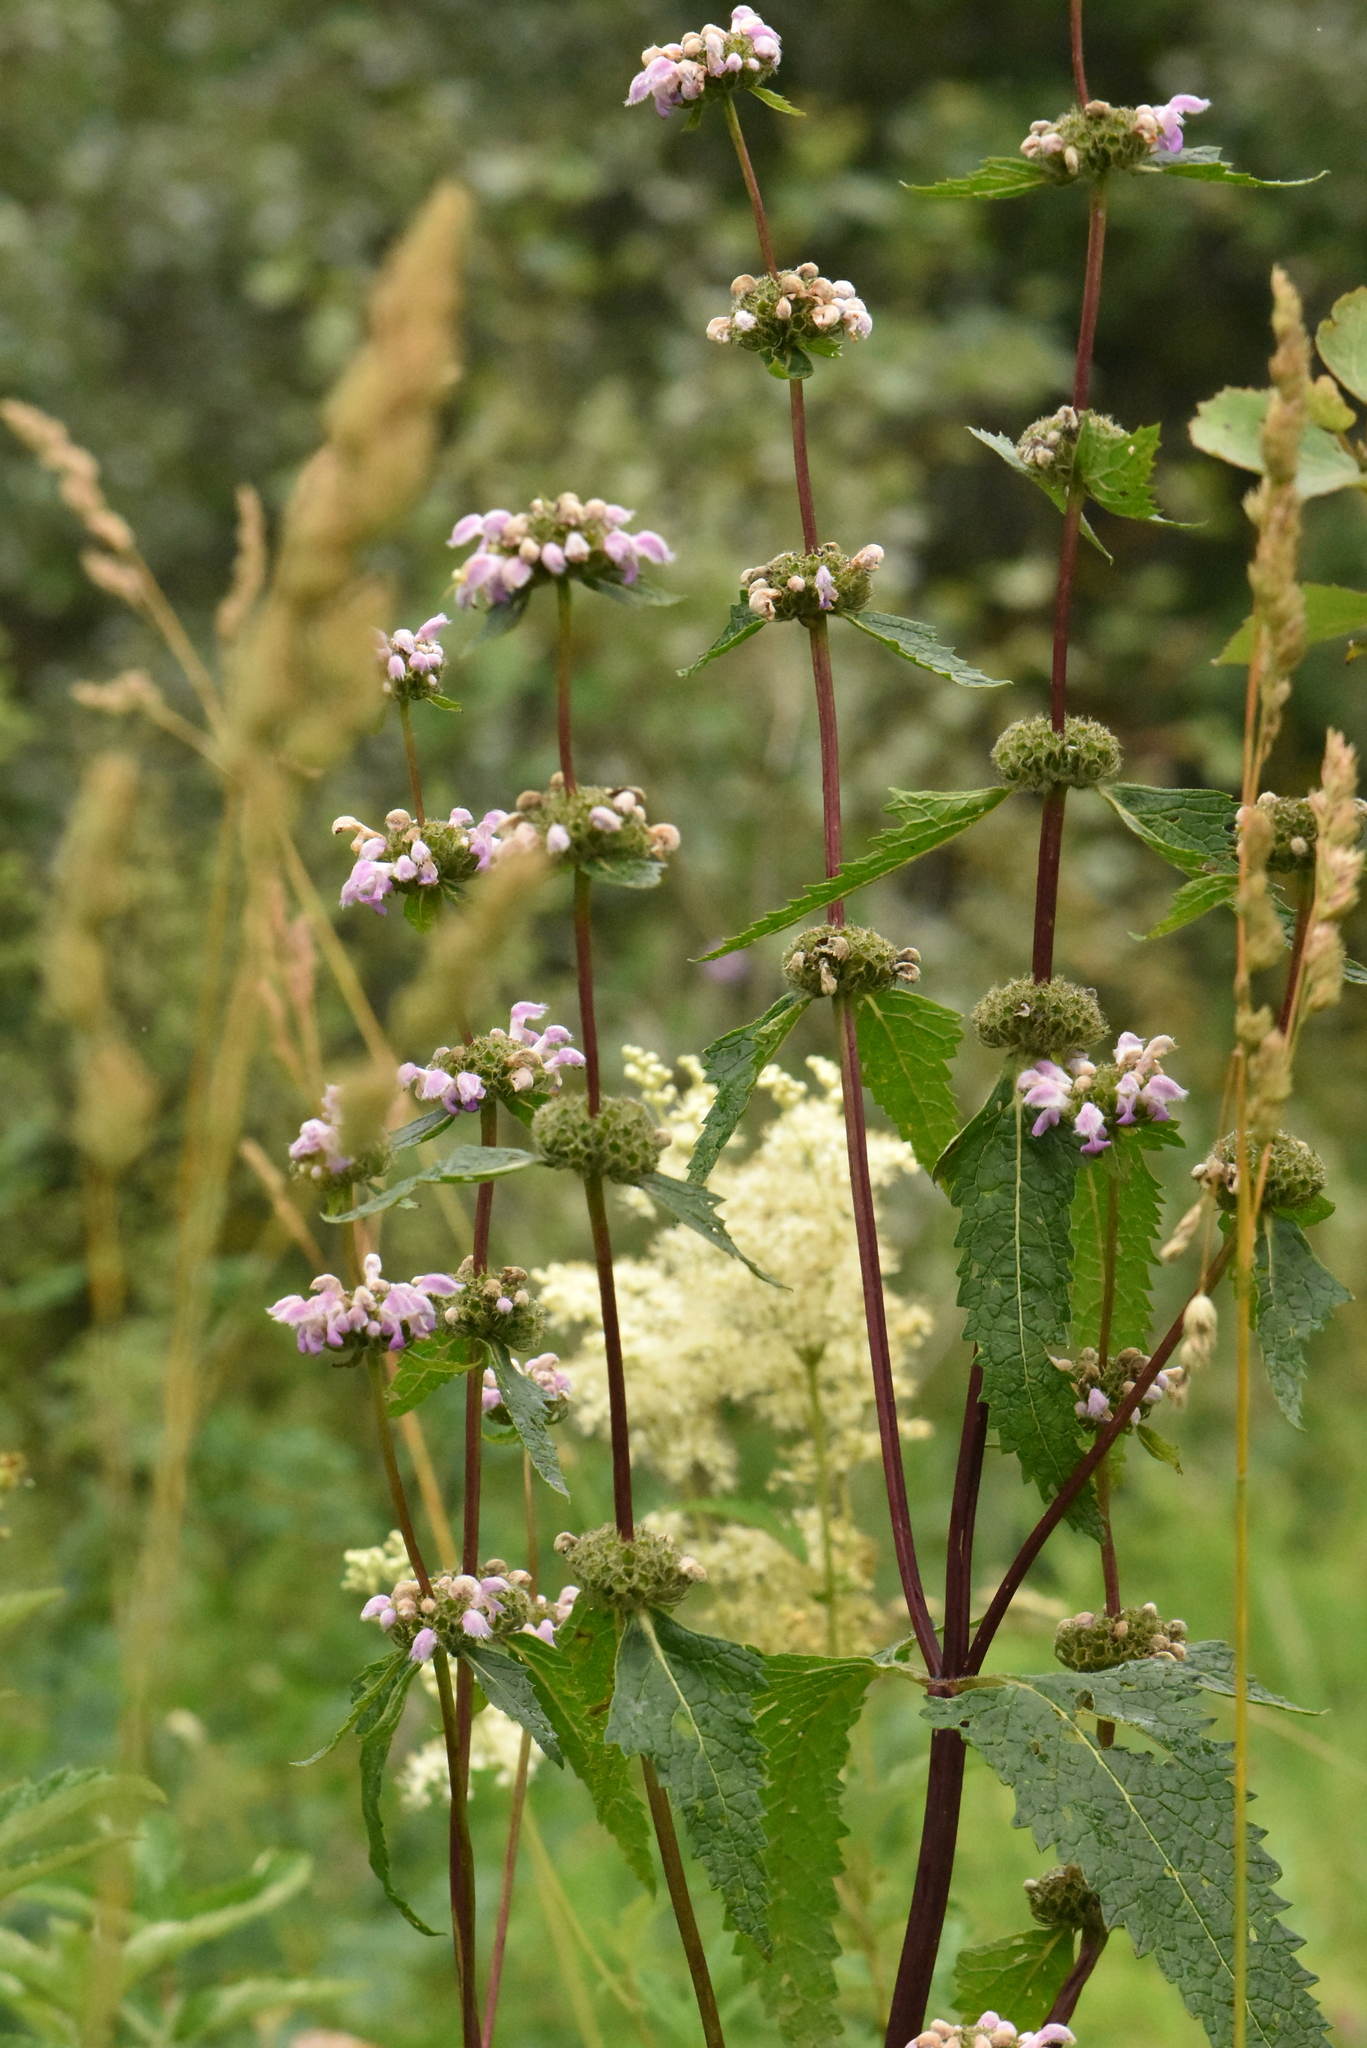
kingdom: Plantae
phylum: Tracheophyta
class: Magnoliopsida
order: Lamiales
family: Lamiaceae
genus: Phlomoides
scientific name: Phlomoides tuberosa
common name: Tuberous jerusalem sage
